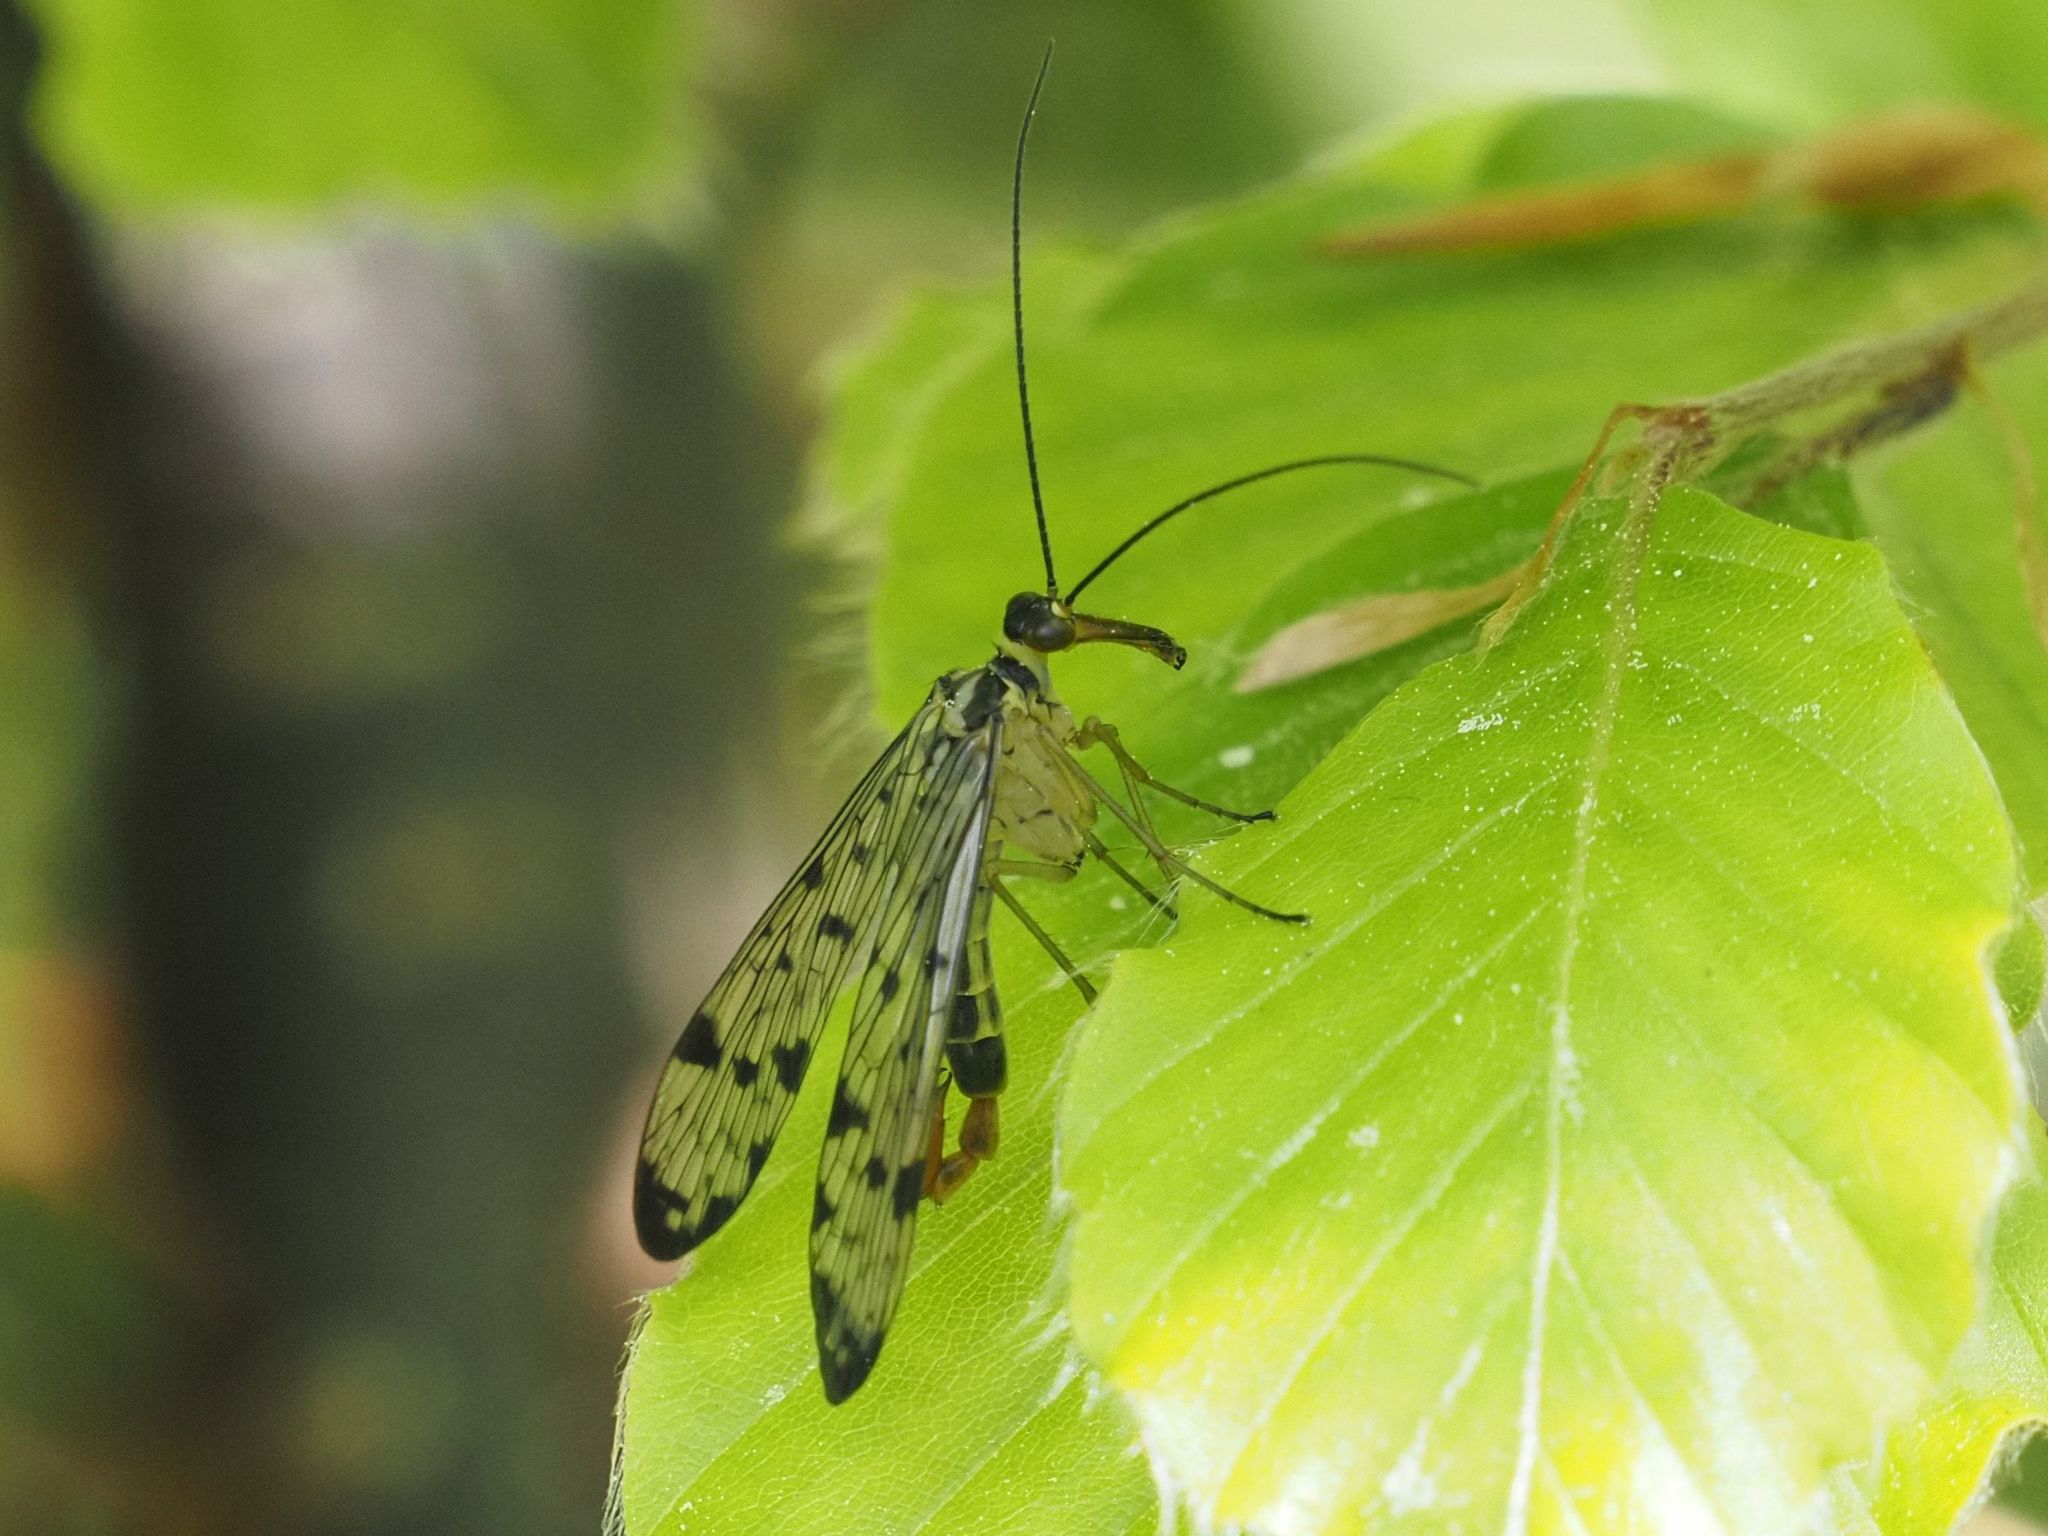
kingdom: Animalia
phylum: Arthropoda
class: Insecta
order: Mecoptera
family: Panorpidae
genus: Panorpa
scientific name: Panorpa germanica
